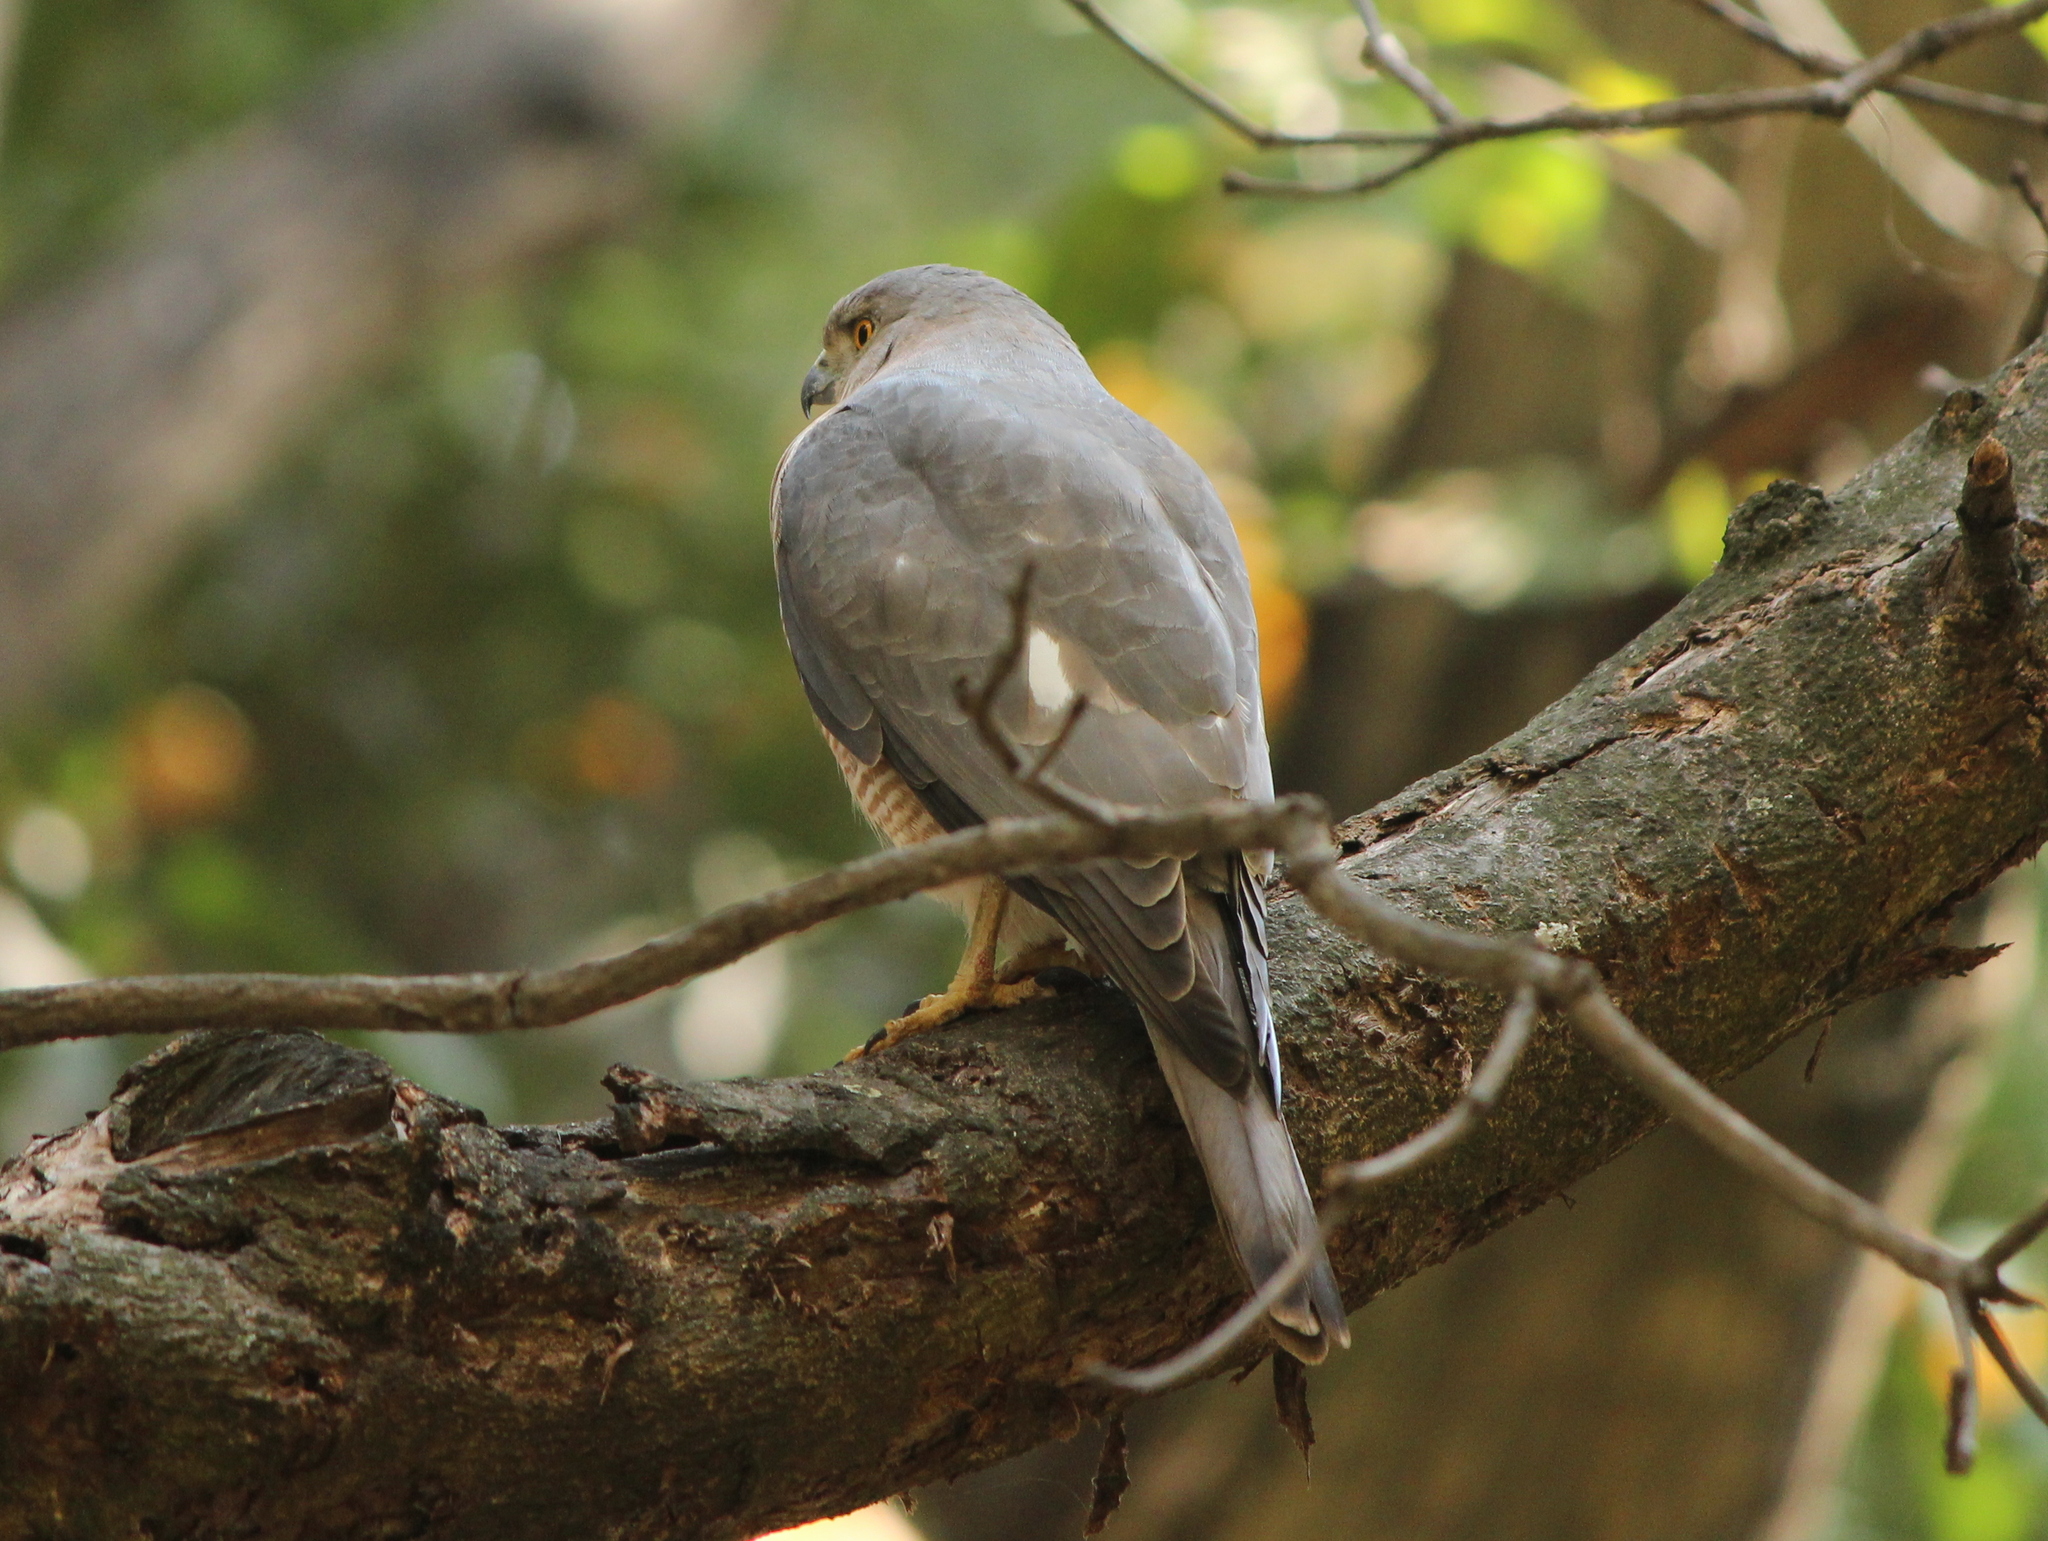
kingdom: Animalia
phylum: Chordata
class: Aves
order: Accipitriformes
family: Accipitridae
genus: Accipiter
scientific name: Accipiter badius
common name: Shikra
